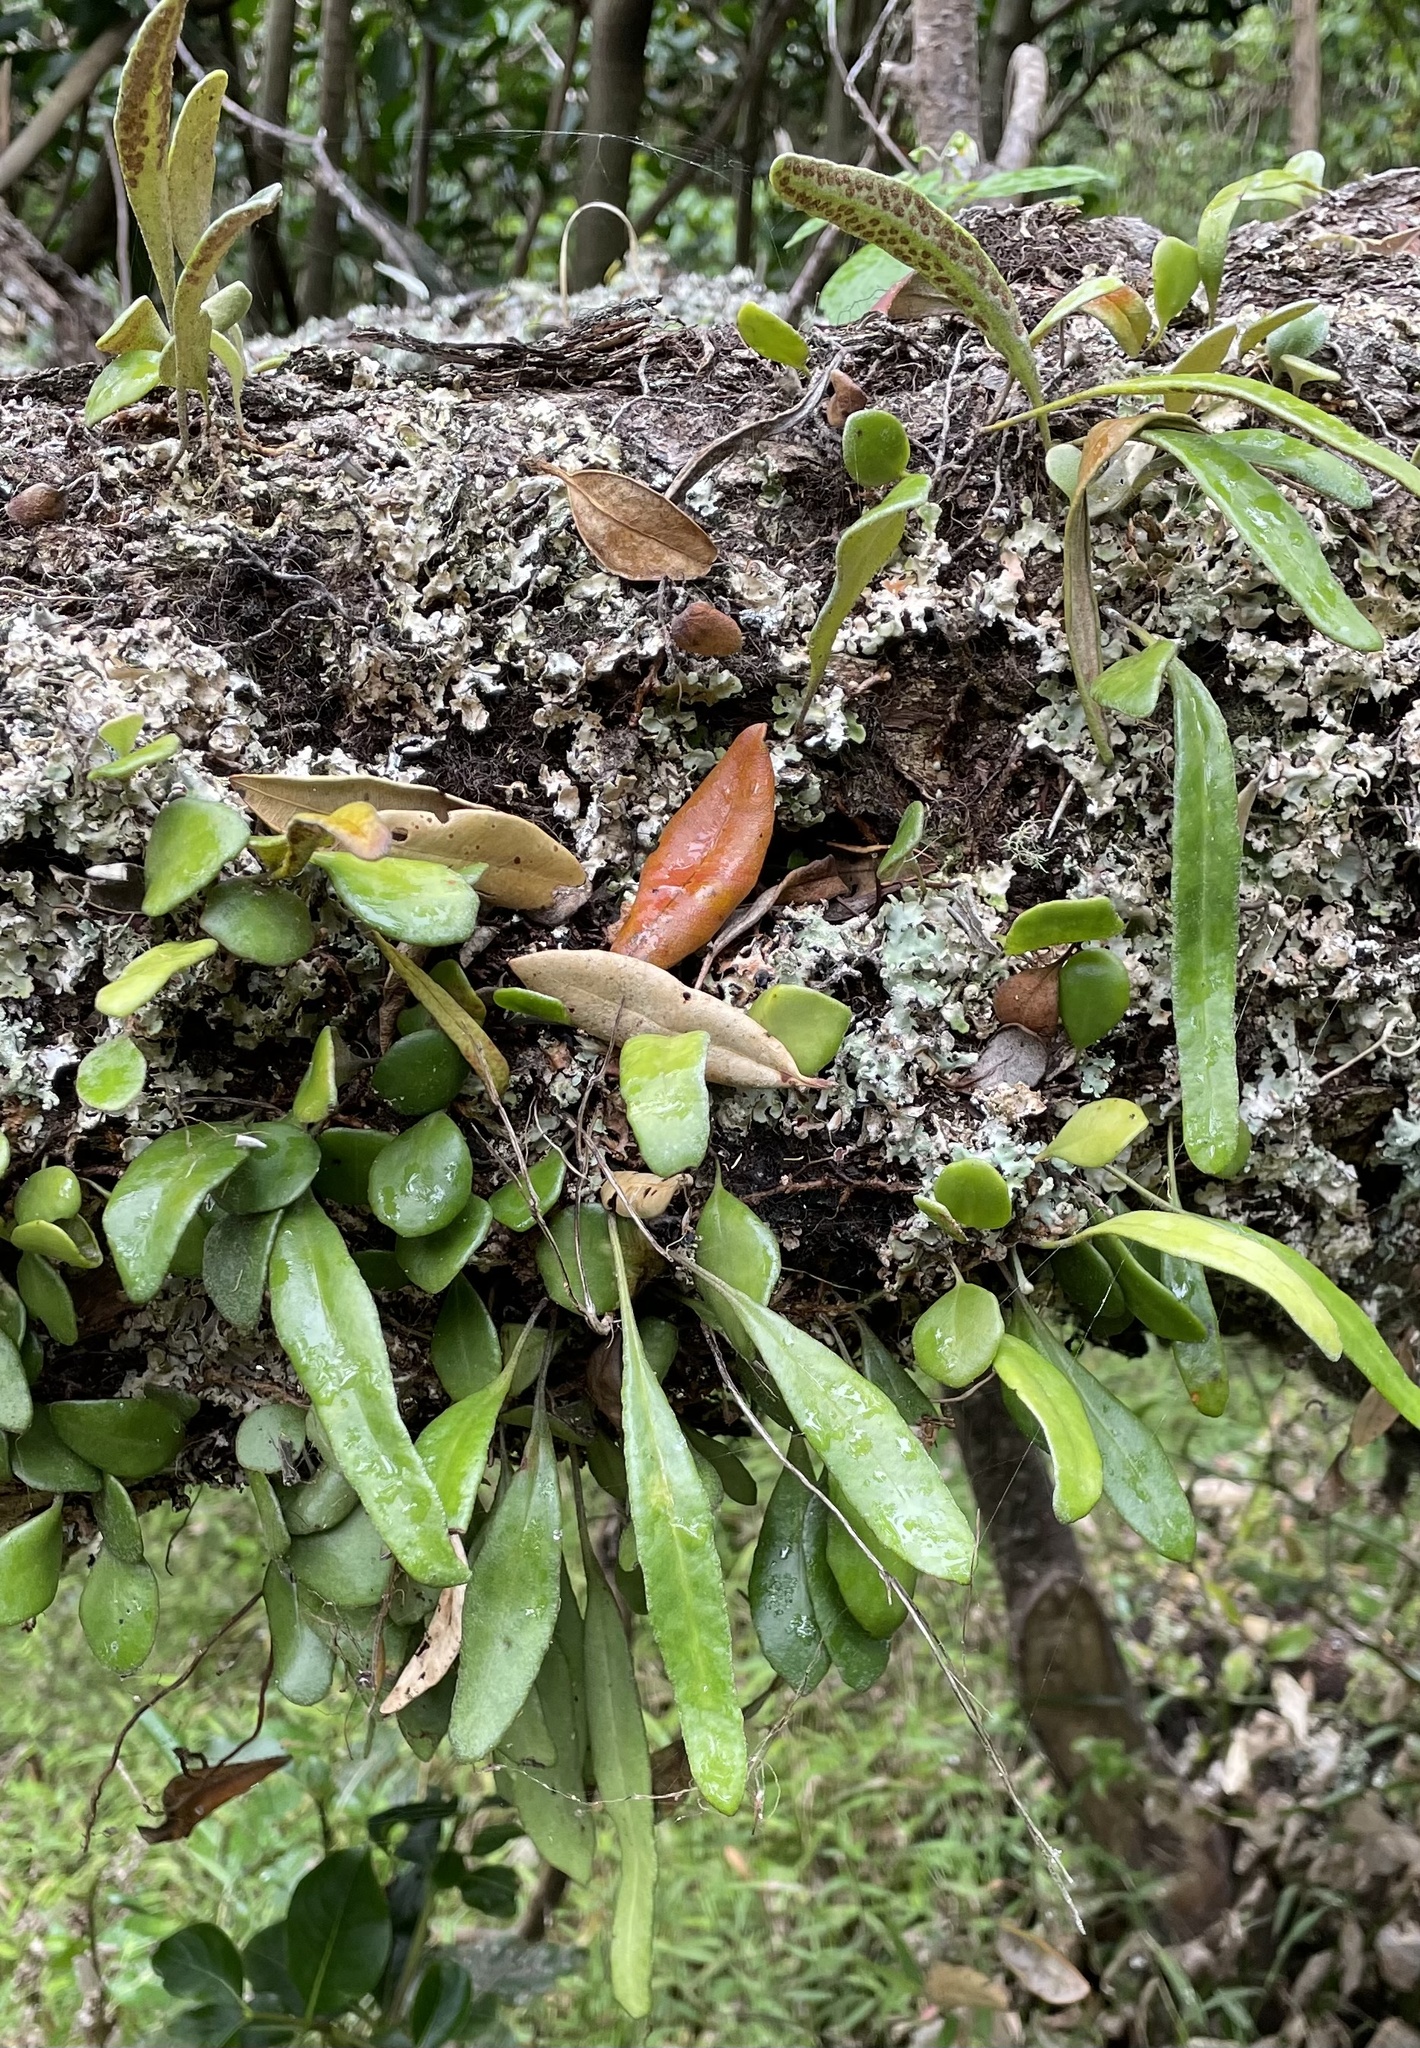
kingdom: Plantae
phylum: Tracheophyta
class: Polypodiopsida
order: Polypodiales
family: Polypodiaceae
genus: Pyrrosia
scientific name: Pyrrosia eleagnifolia
